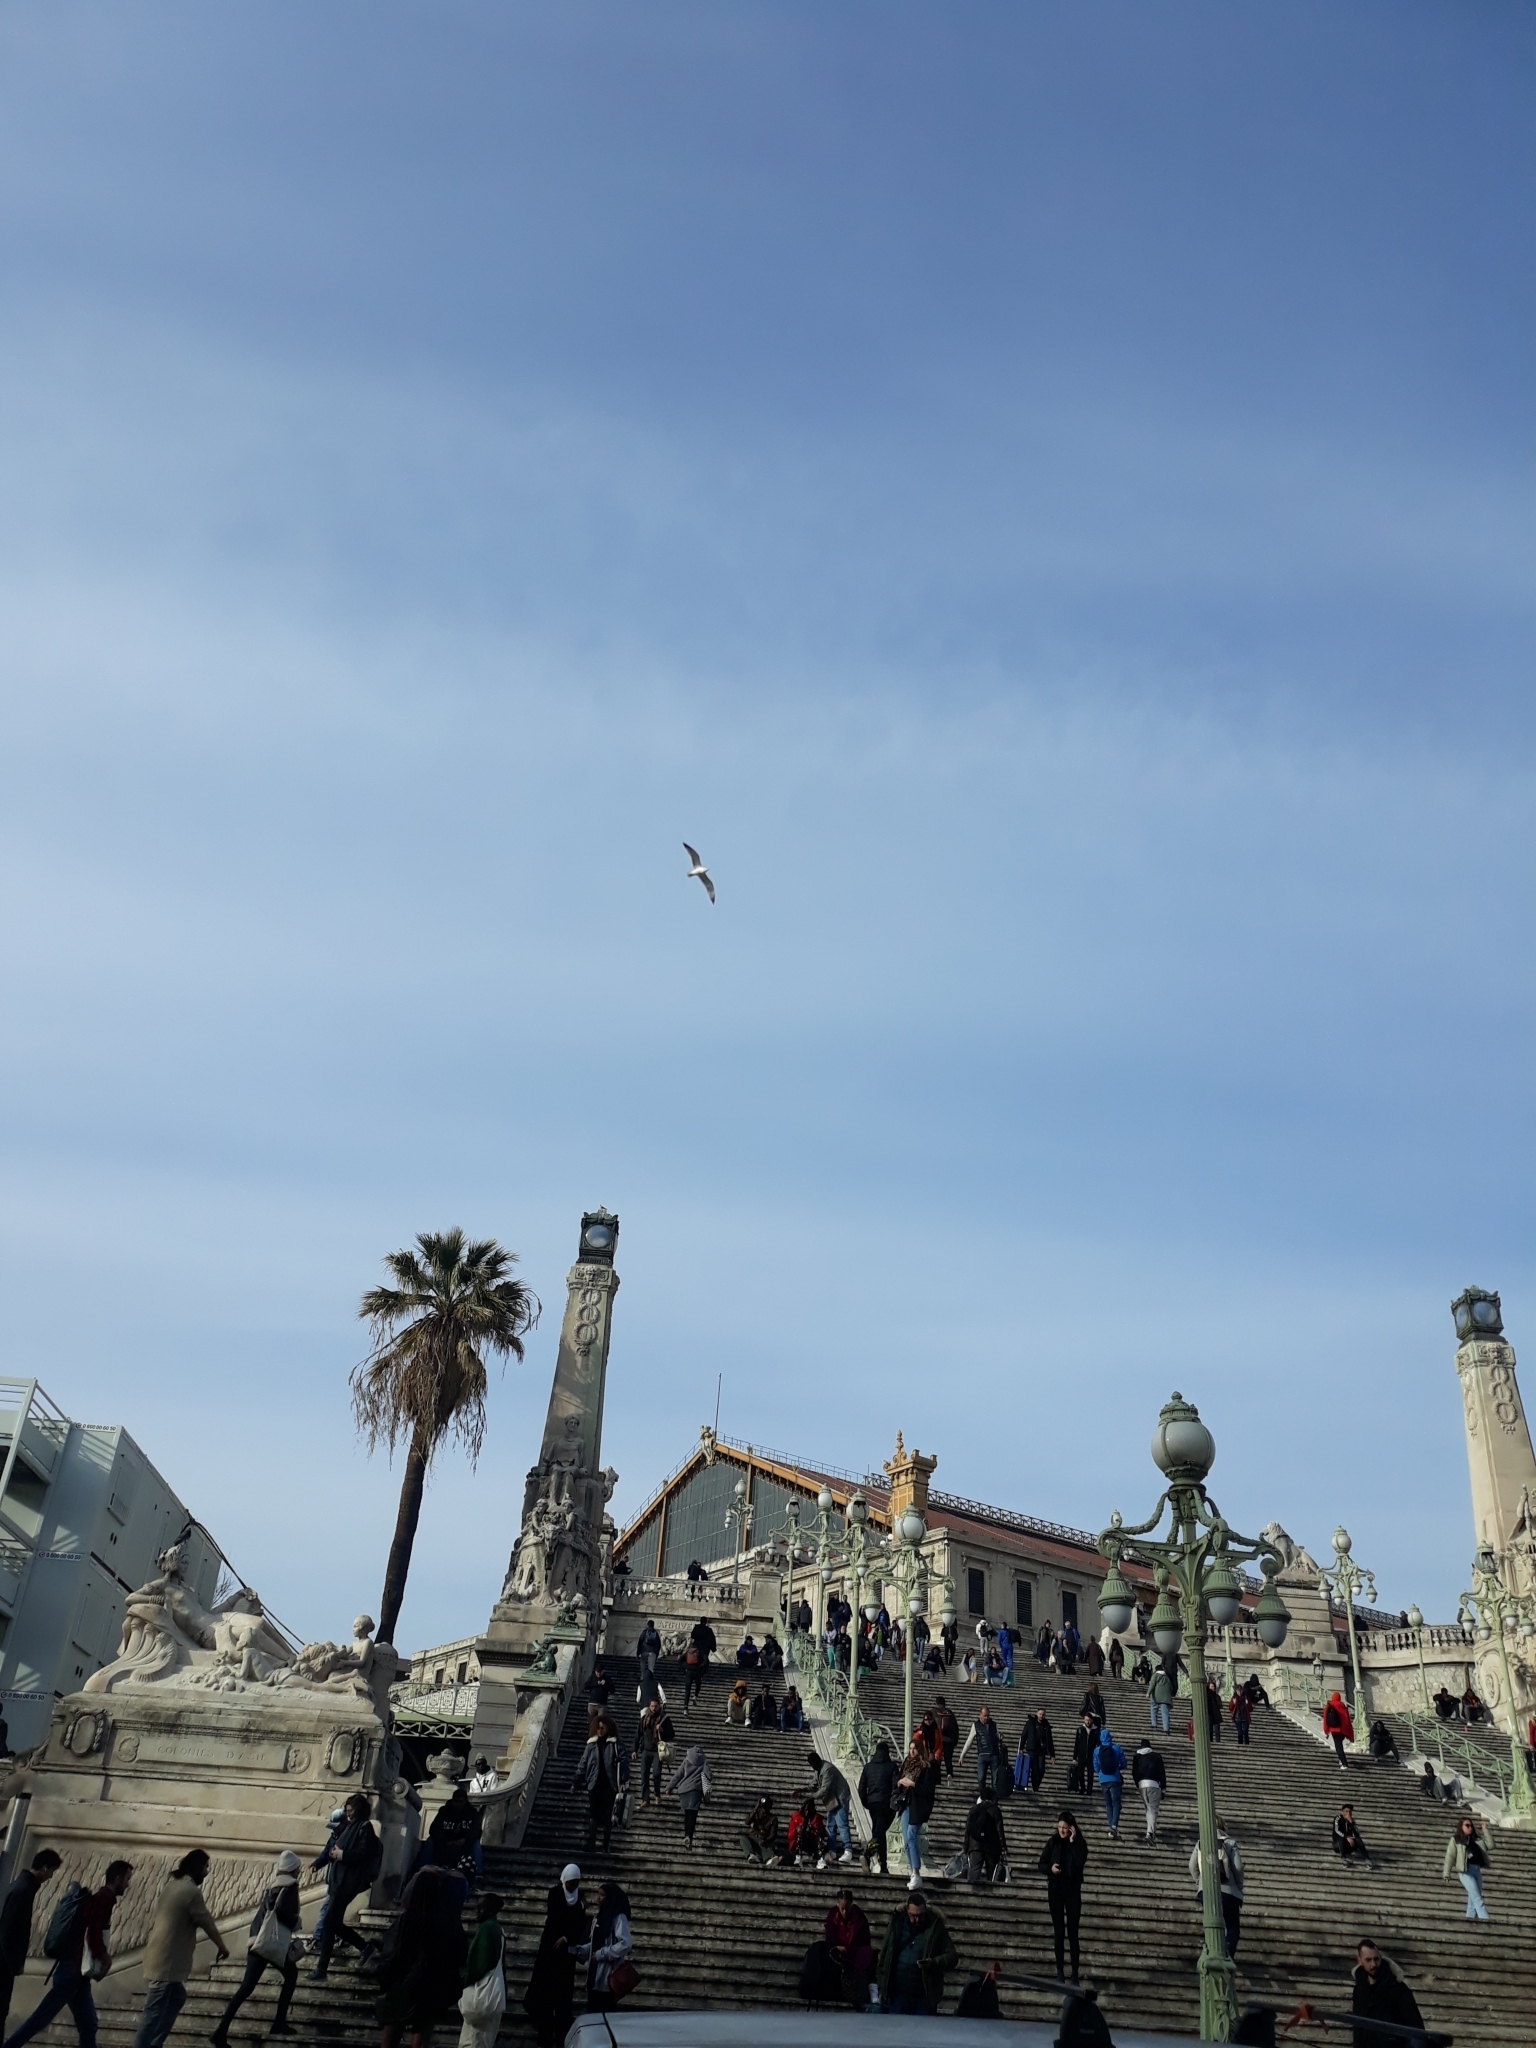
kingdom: Animalia
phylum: Chordata
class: Aves
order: Charadriiformes
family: Laridae
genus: Larus
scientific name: Larus michahellis
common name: Yellow-legged gull
